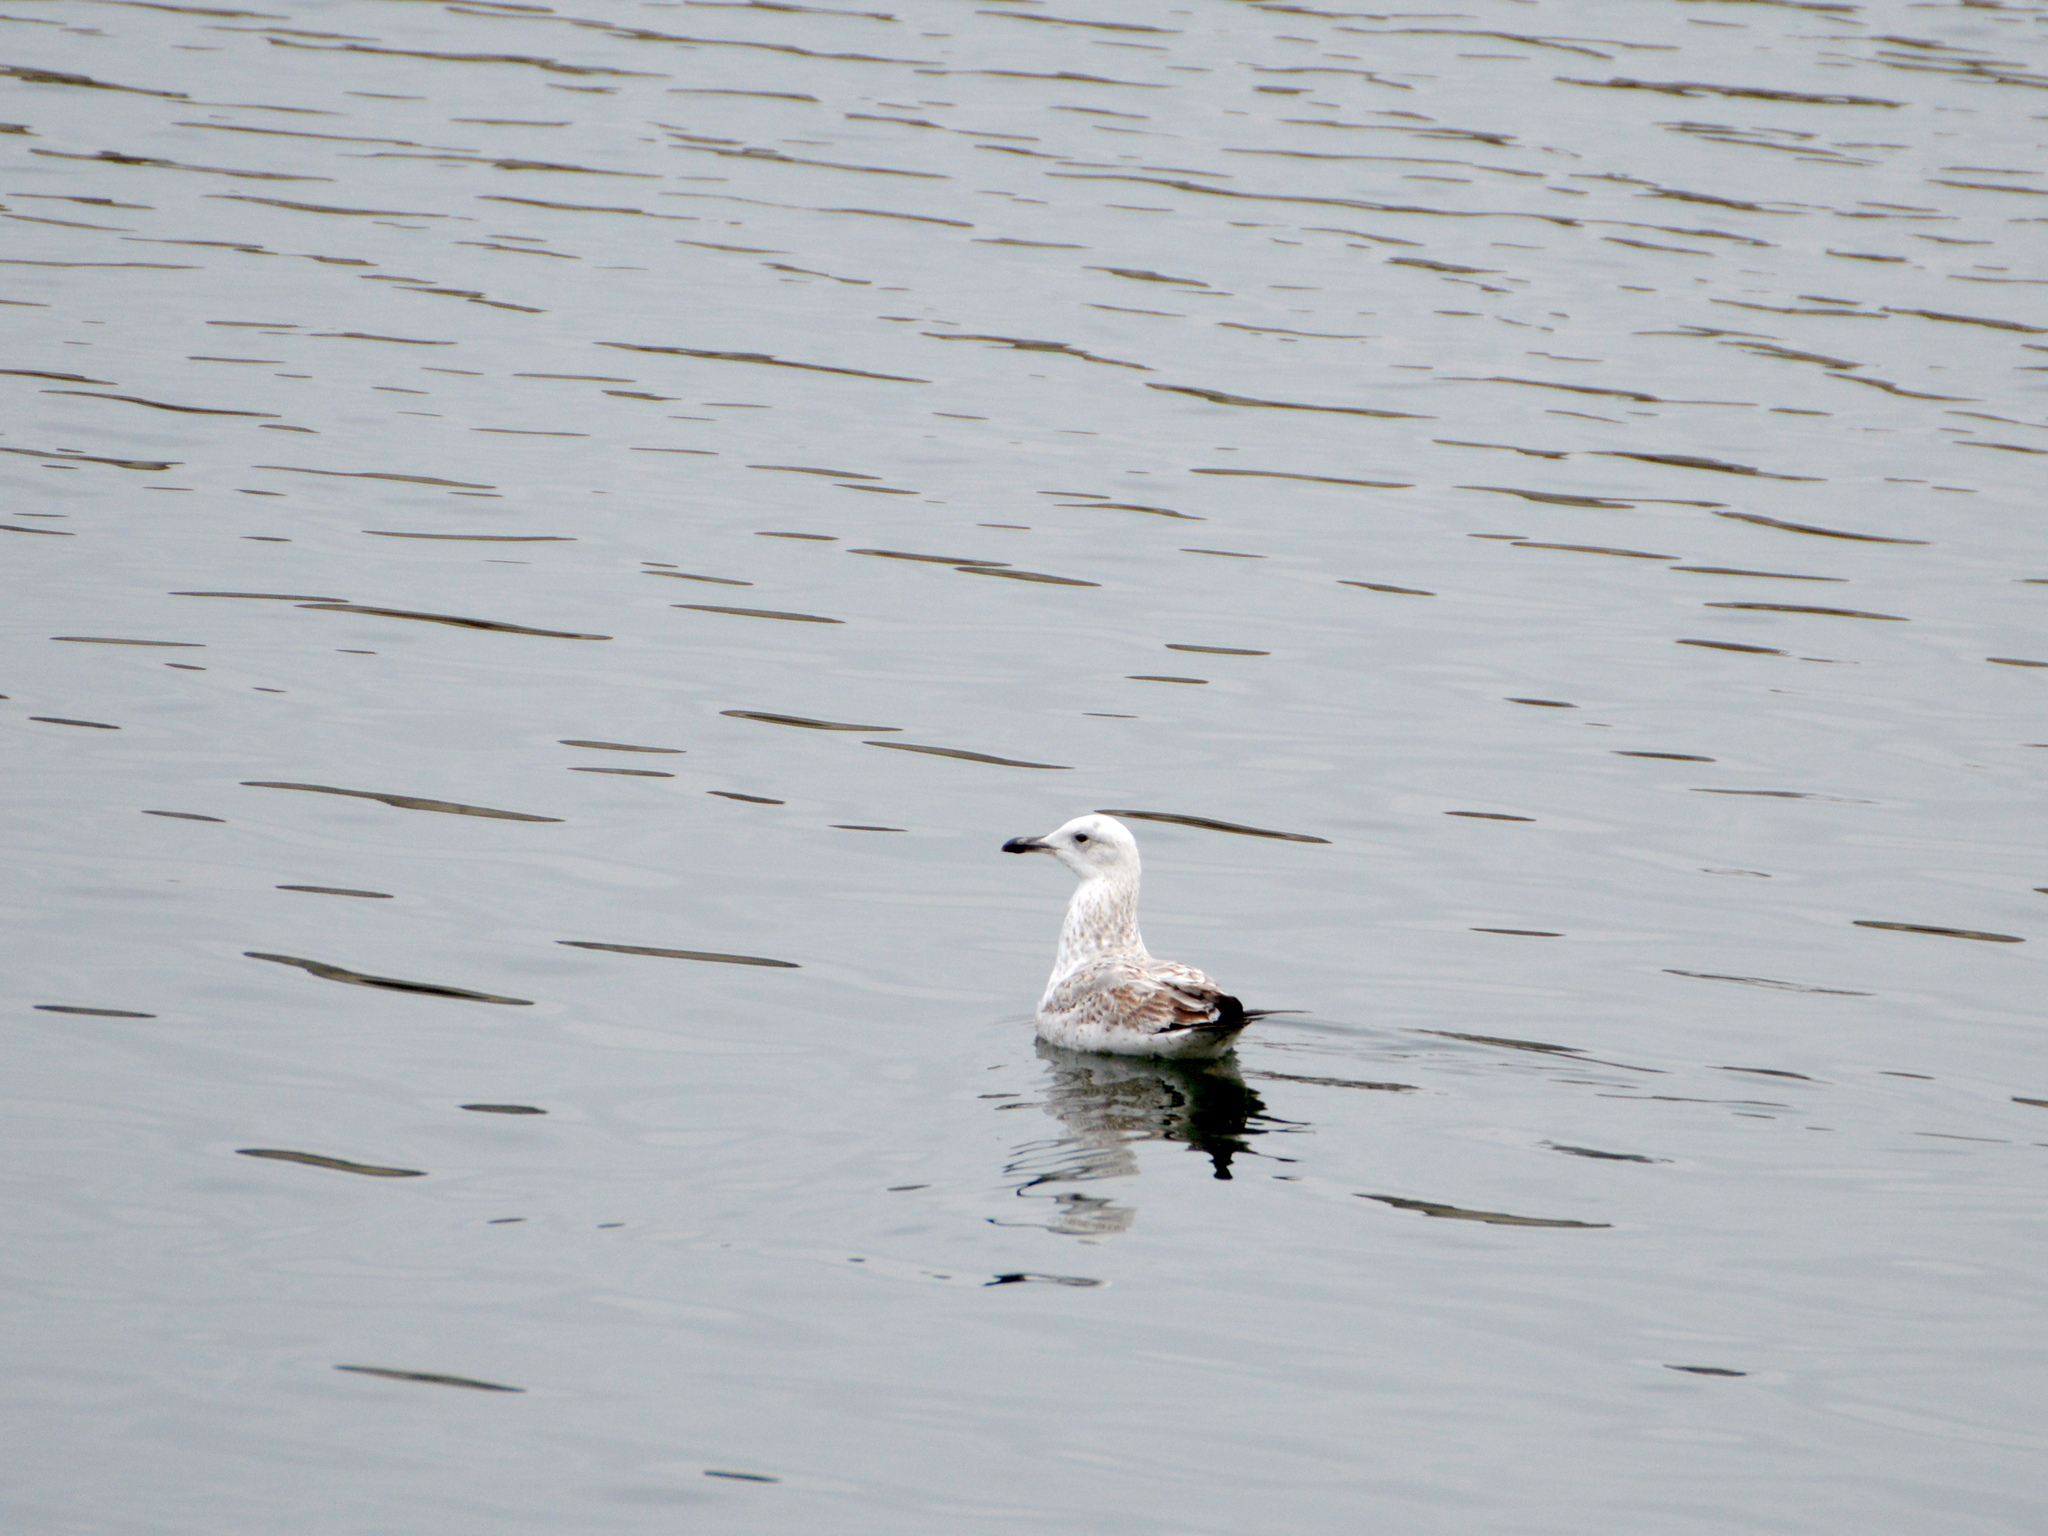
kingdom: Animalia
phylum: Chordata
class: Aves
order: Charadriiformes
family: Laridae
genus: Larus
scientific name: Larus cachinnans
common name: Caspian gull
